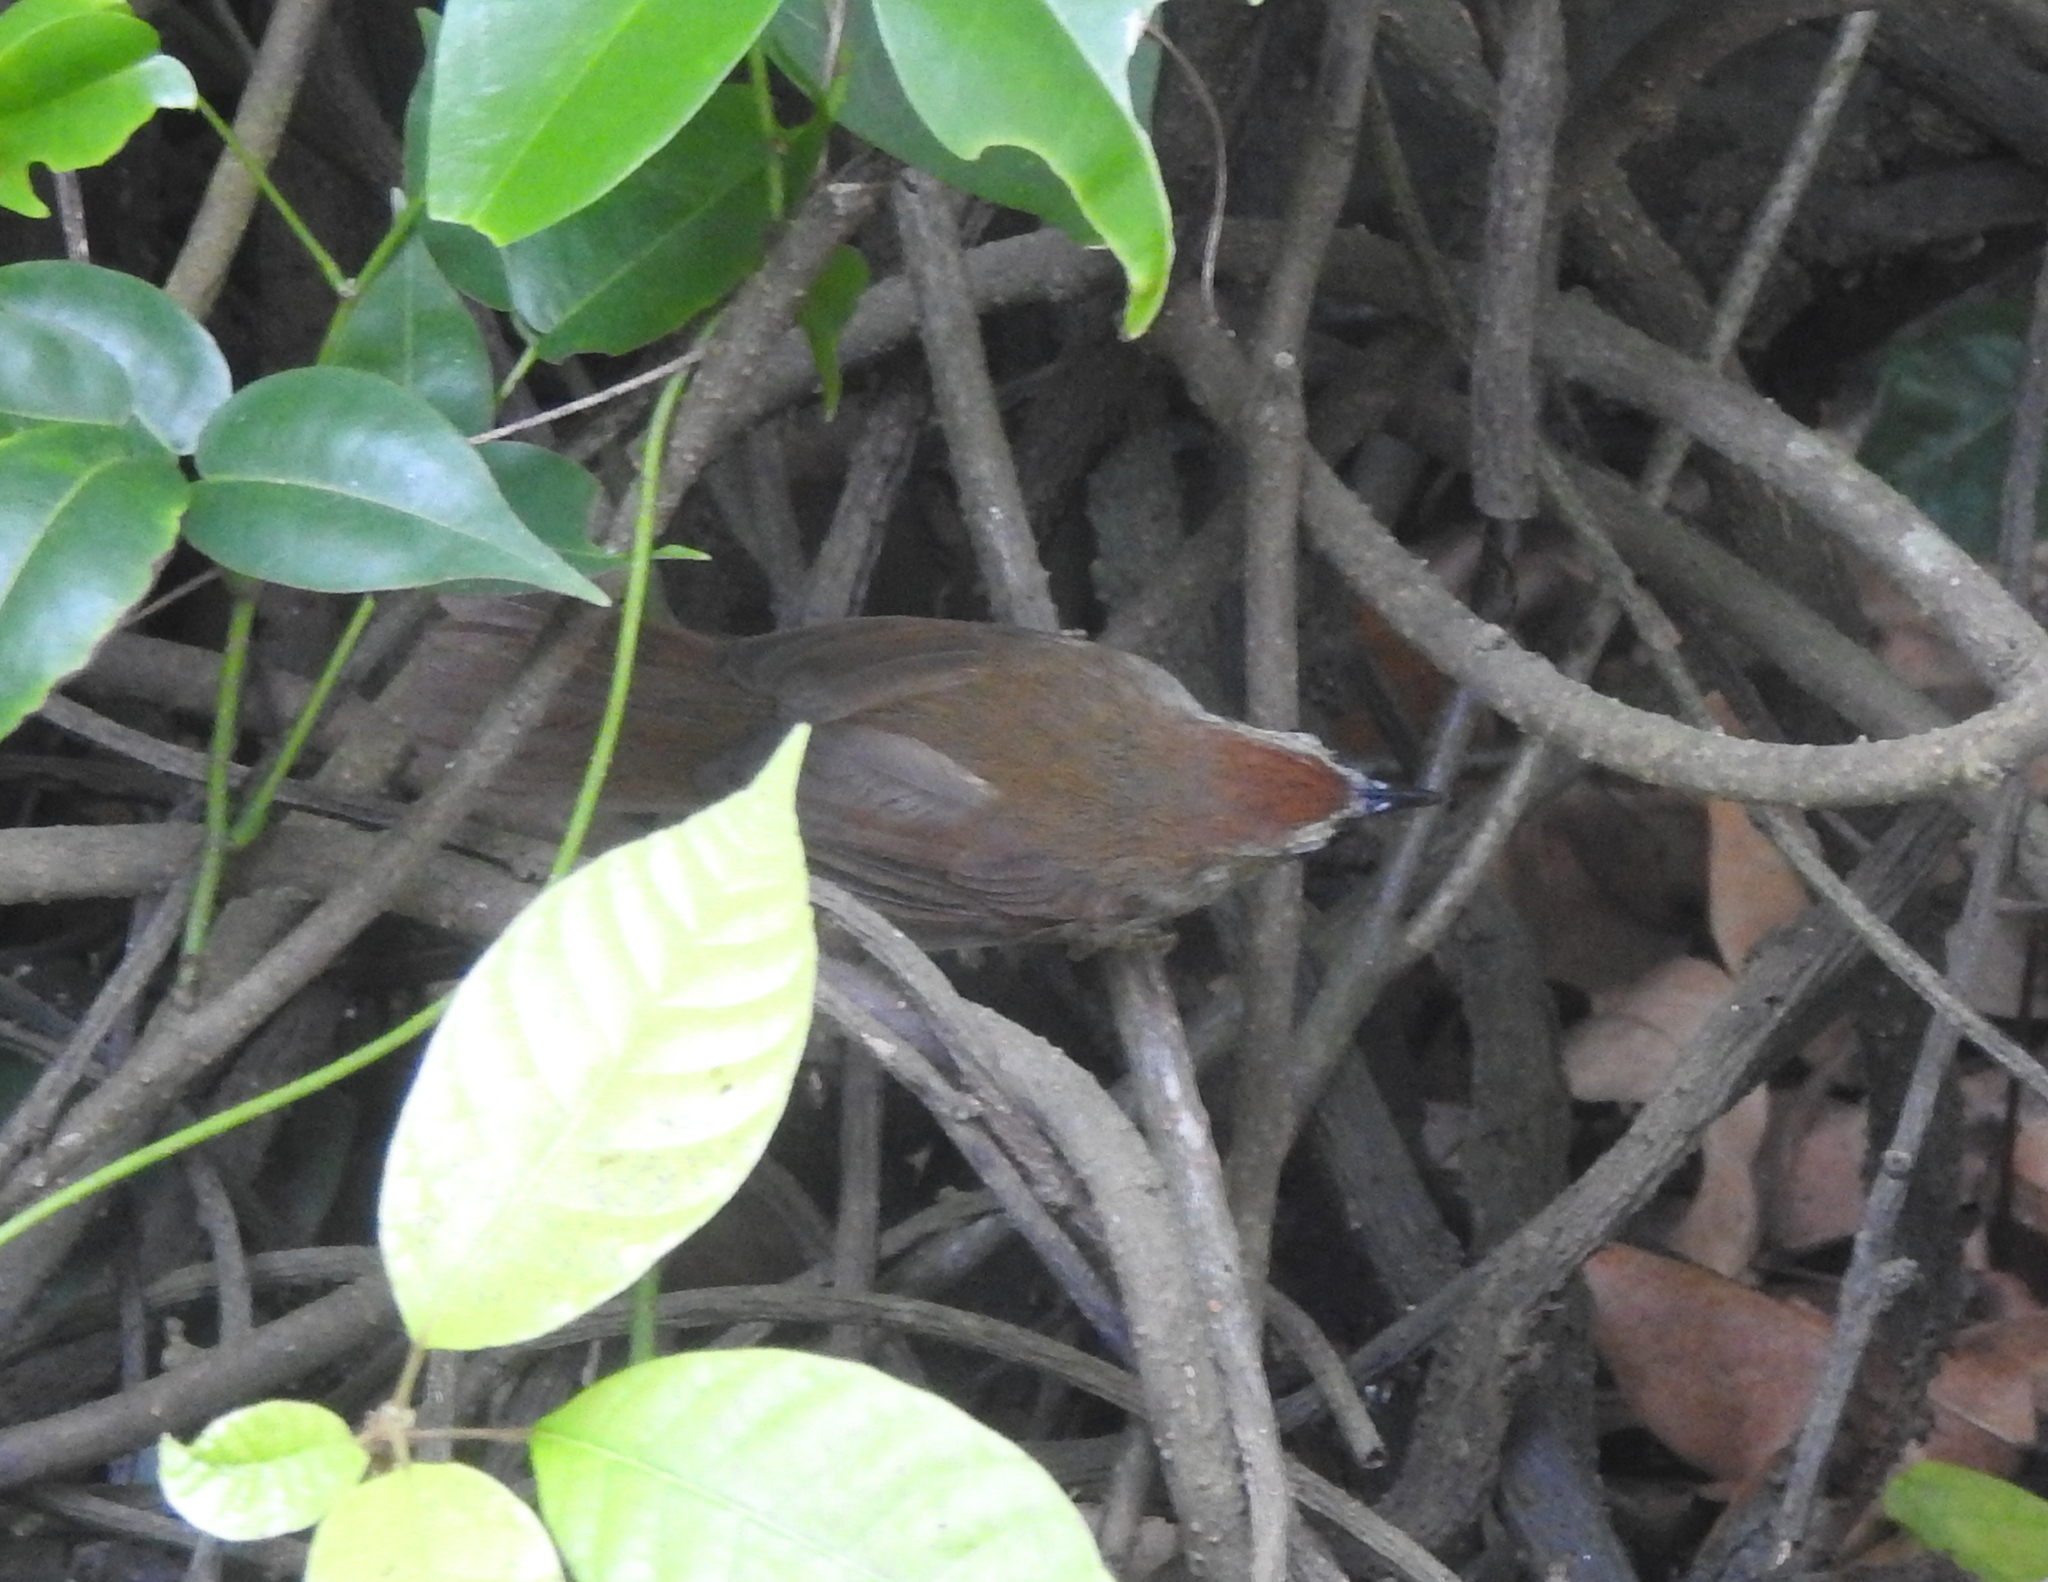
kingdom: Animalia
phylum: Chordata
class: Aves
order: Passeriformes
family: Timaliidae
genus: Macronus
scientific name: Macronus gularis
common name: Striped tit-babbler
